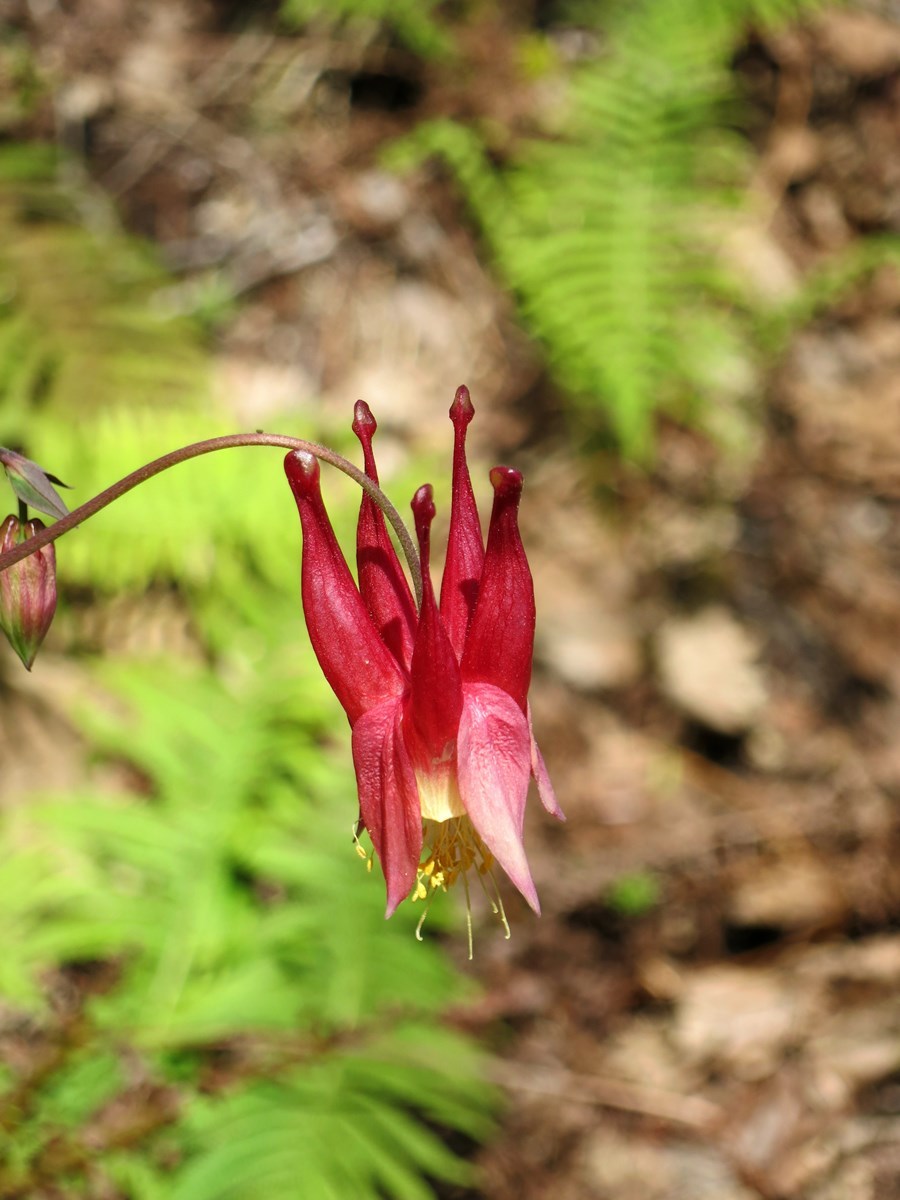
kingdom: Plantae
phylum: Tracheophyta
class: Magnoliopsida
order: Ranunculales
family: Ranunculaceae
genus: Aquilegia
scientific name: Aquilegia canadensis
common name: American columbine
